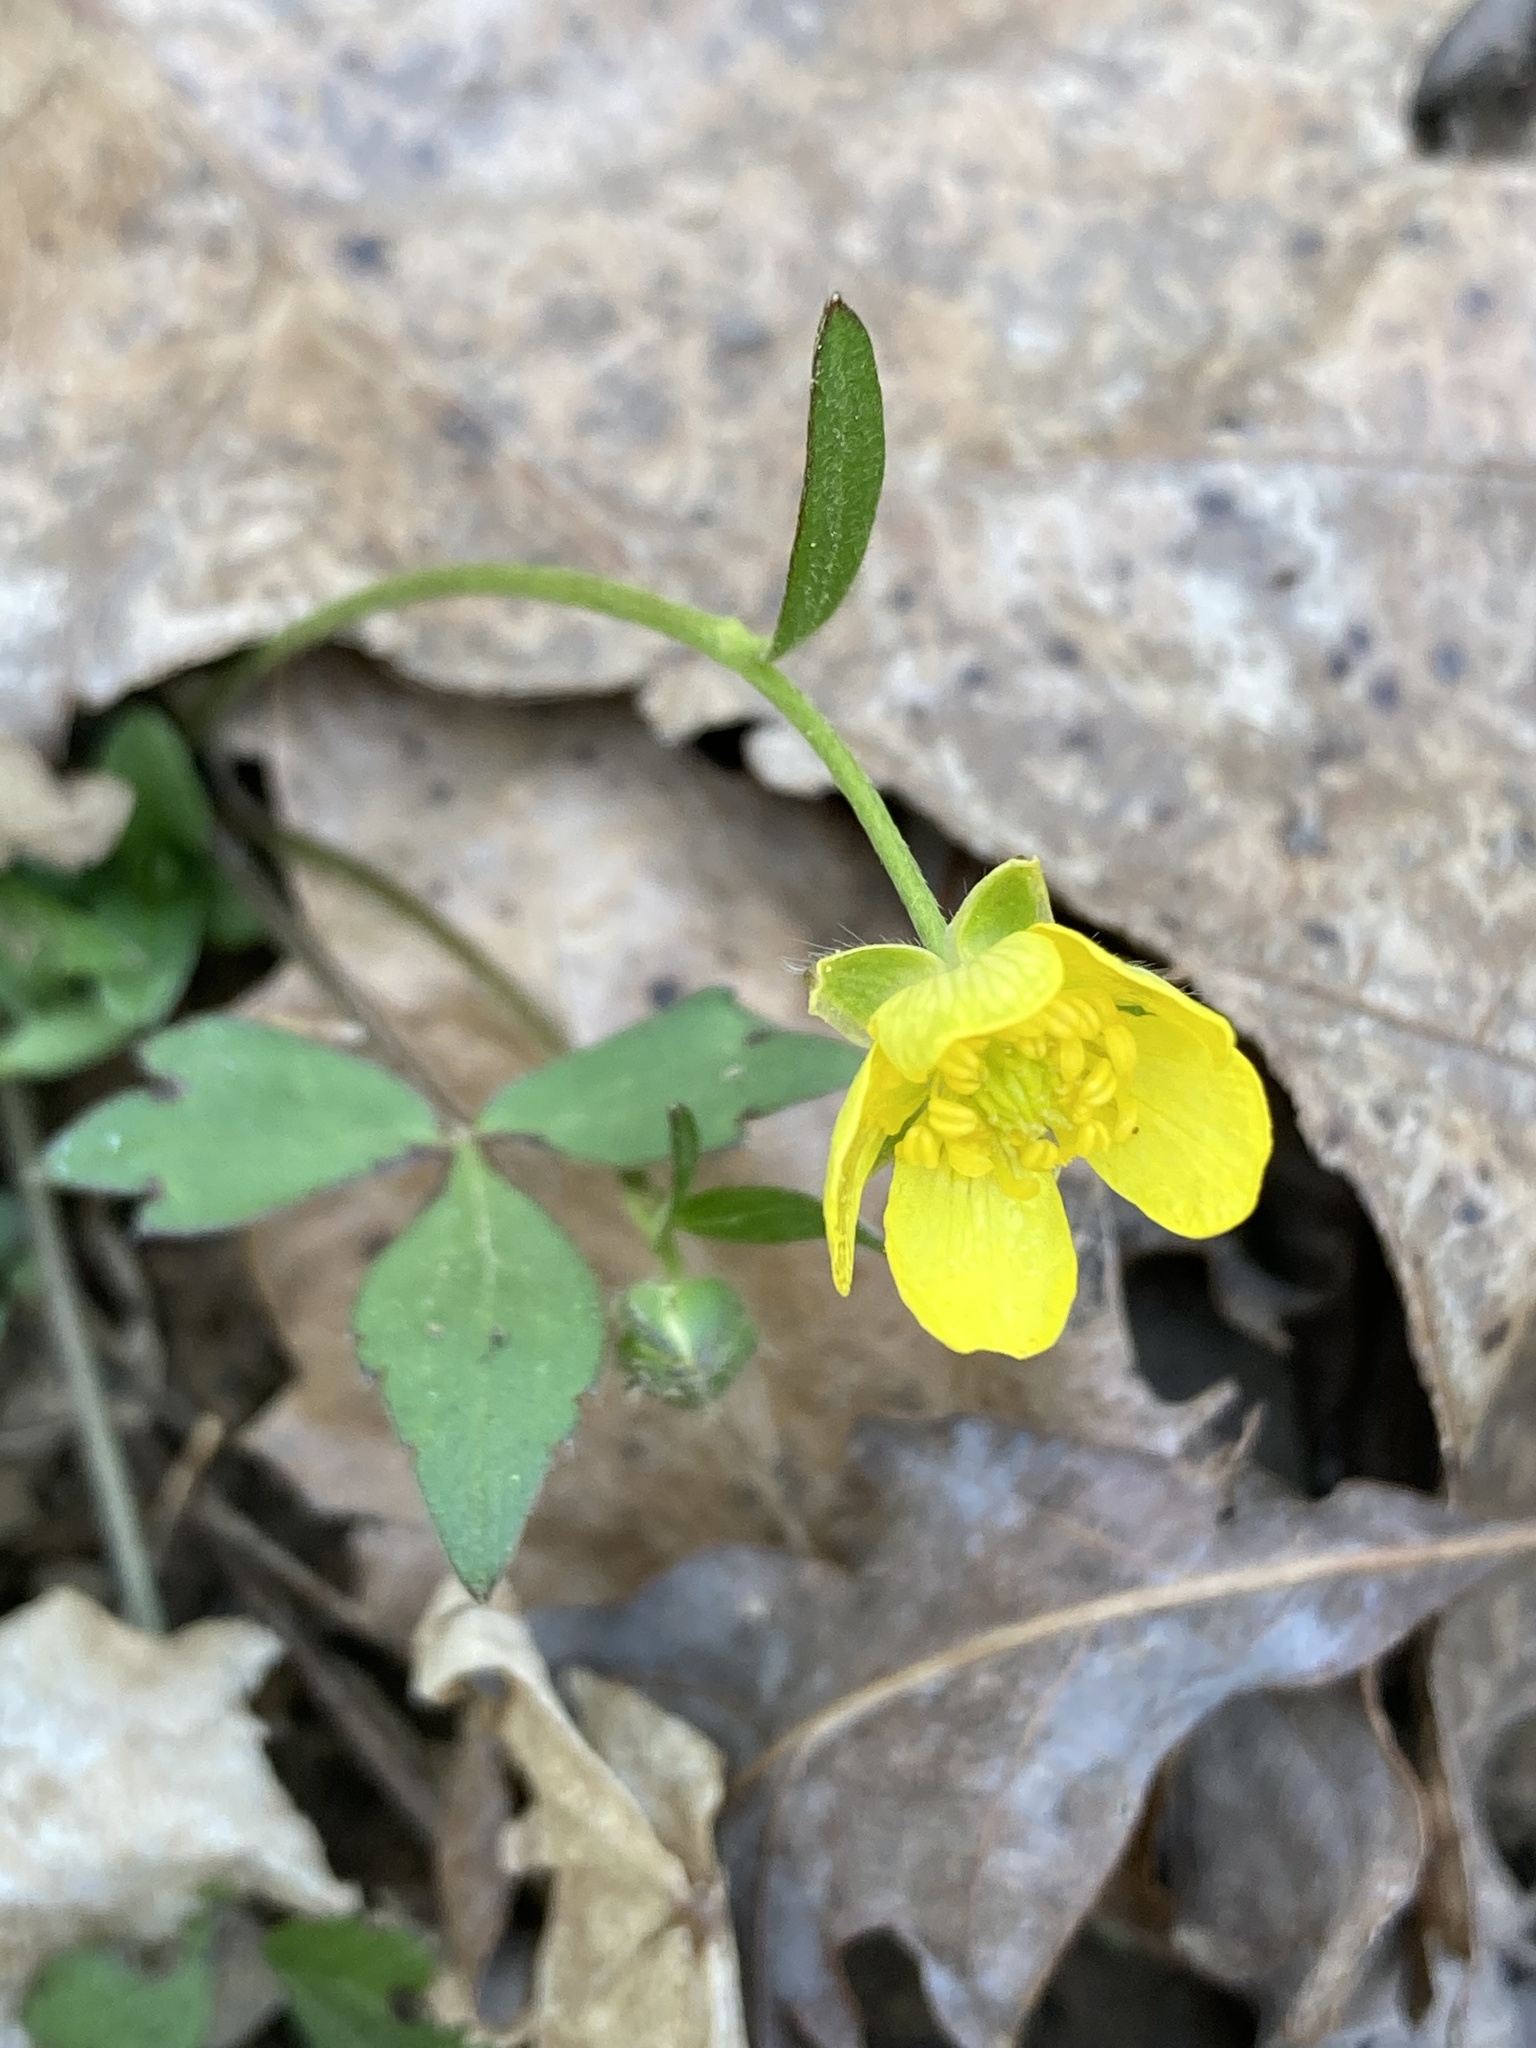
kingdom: Plantae
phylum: Tracheophyta
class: Magnoliopsida
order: Ranunculales
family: Ranunculaceae
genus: Ranunculus
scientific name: Ranunculus hispidus
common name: Bristly buttercup
